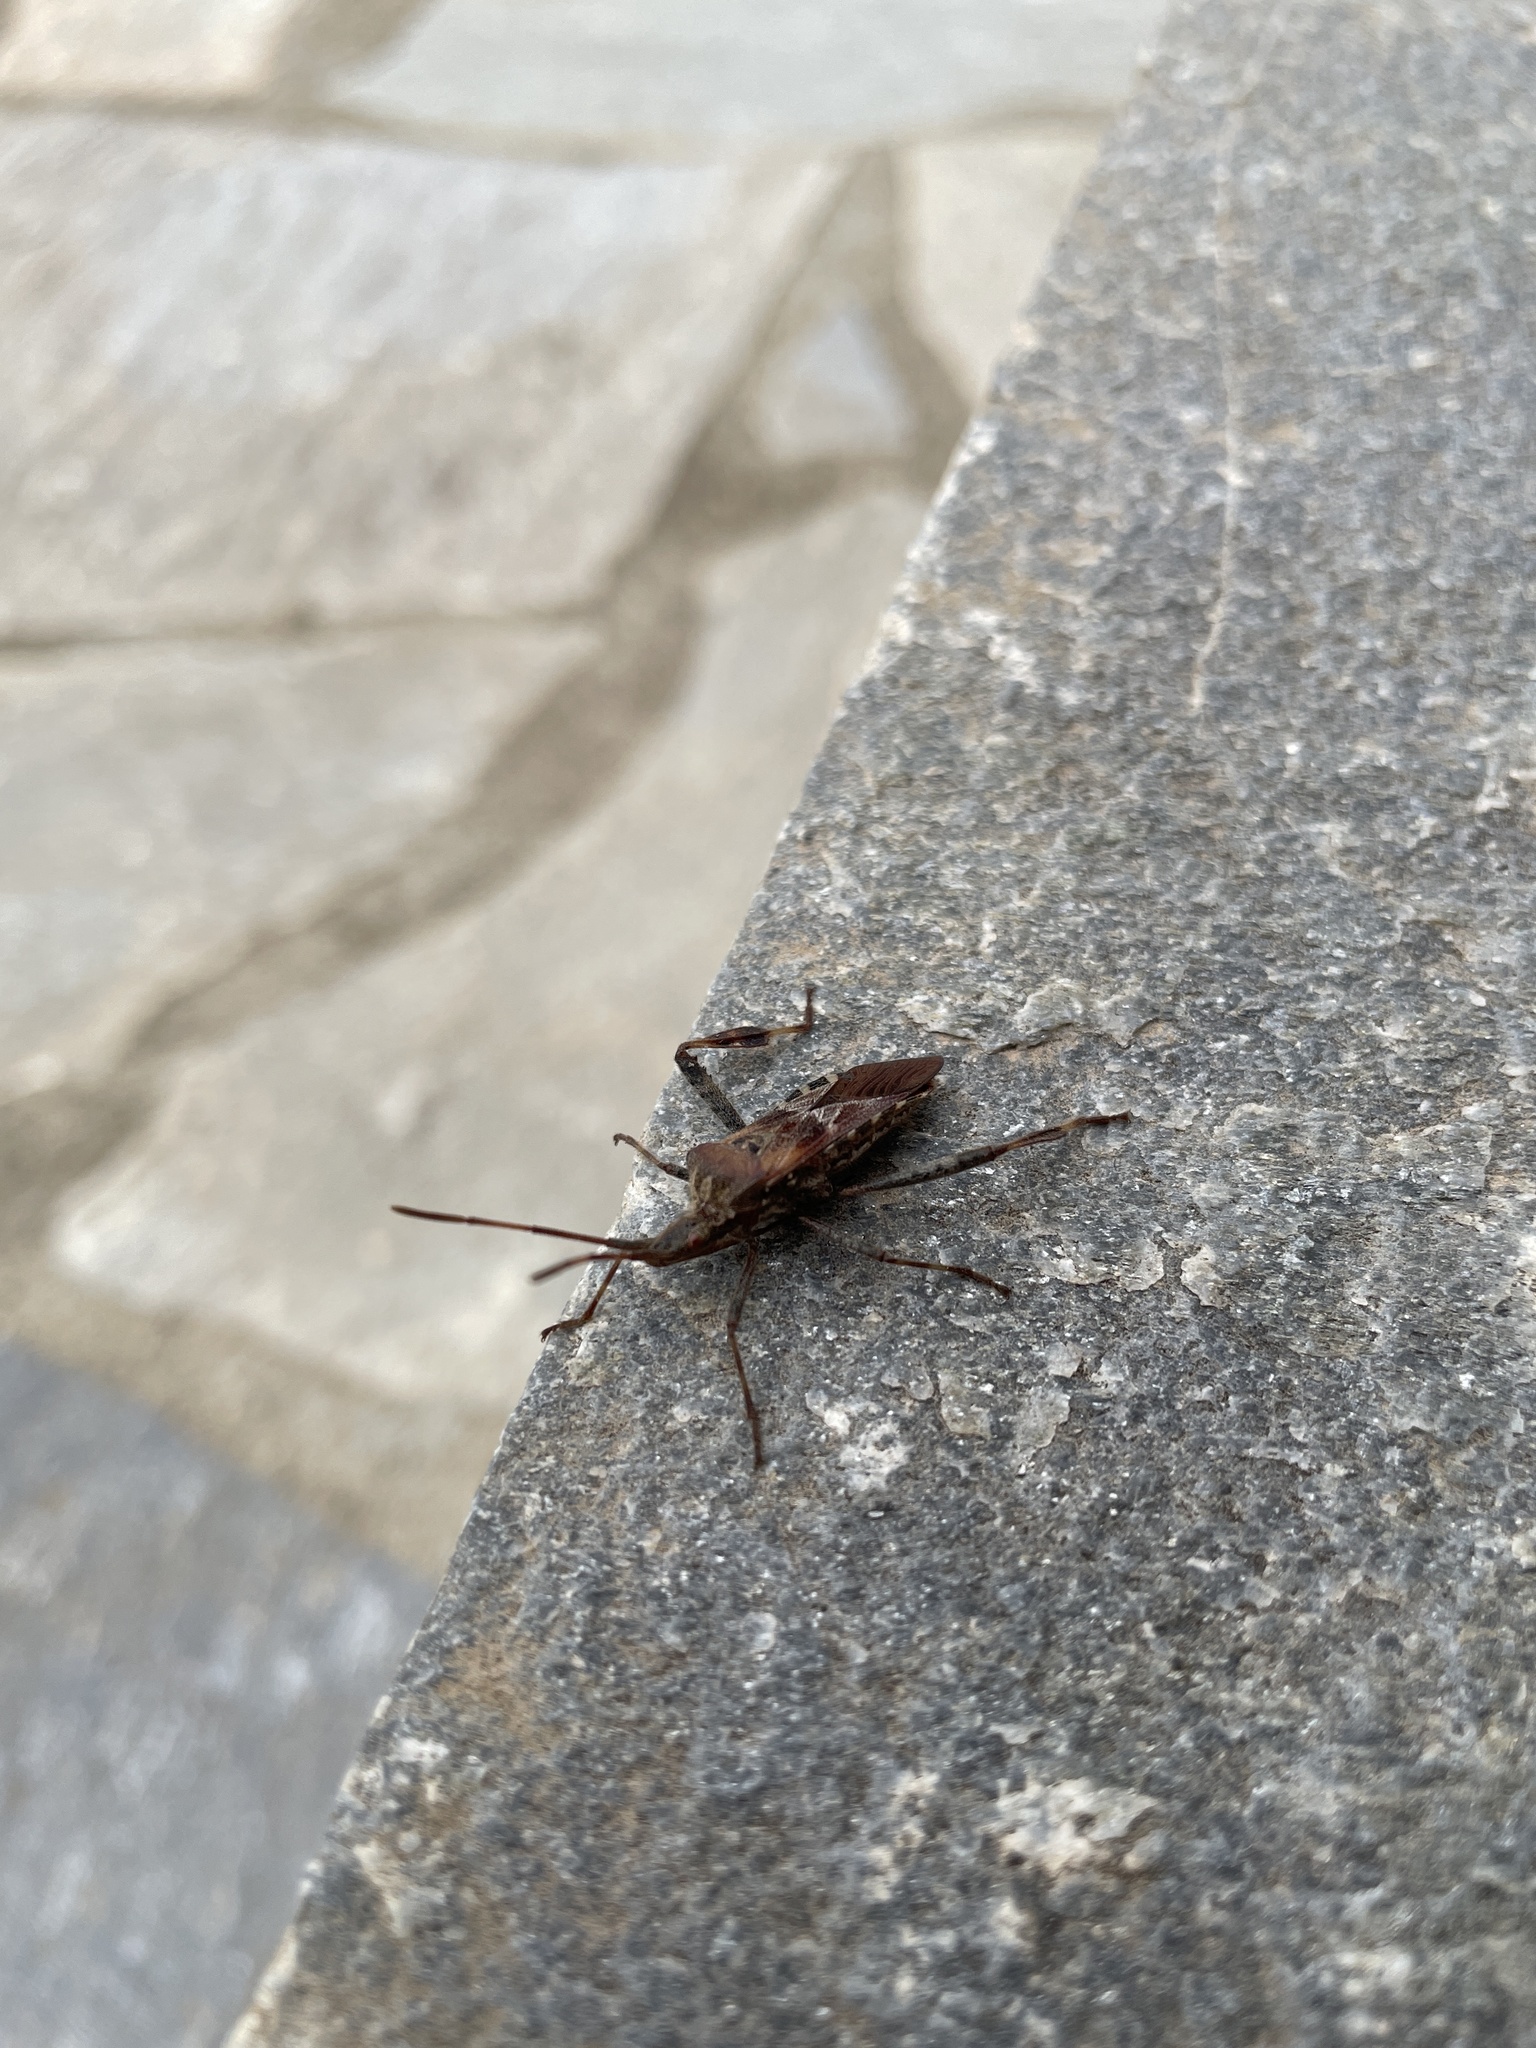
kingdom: Animalia
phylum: Arthropoda
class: Insecta
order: Hemiptera
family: Coreidae
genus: Leptoglossus
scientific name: Leptoglossus occidentalis
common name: Western conifer-seed bug
